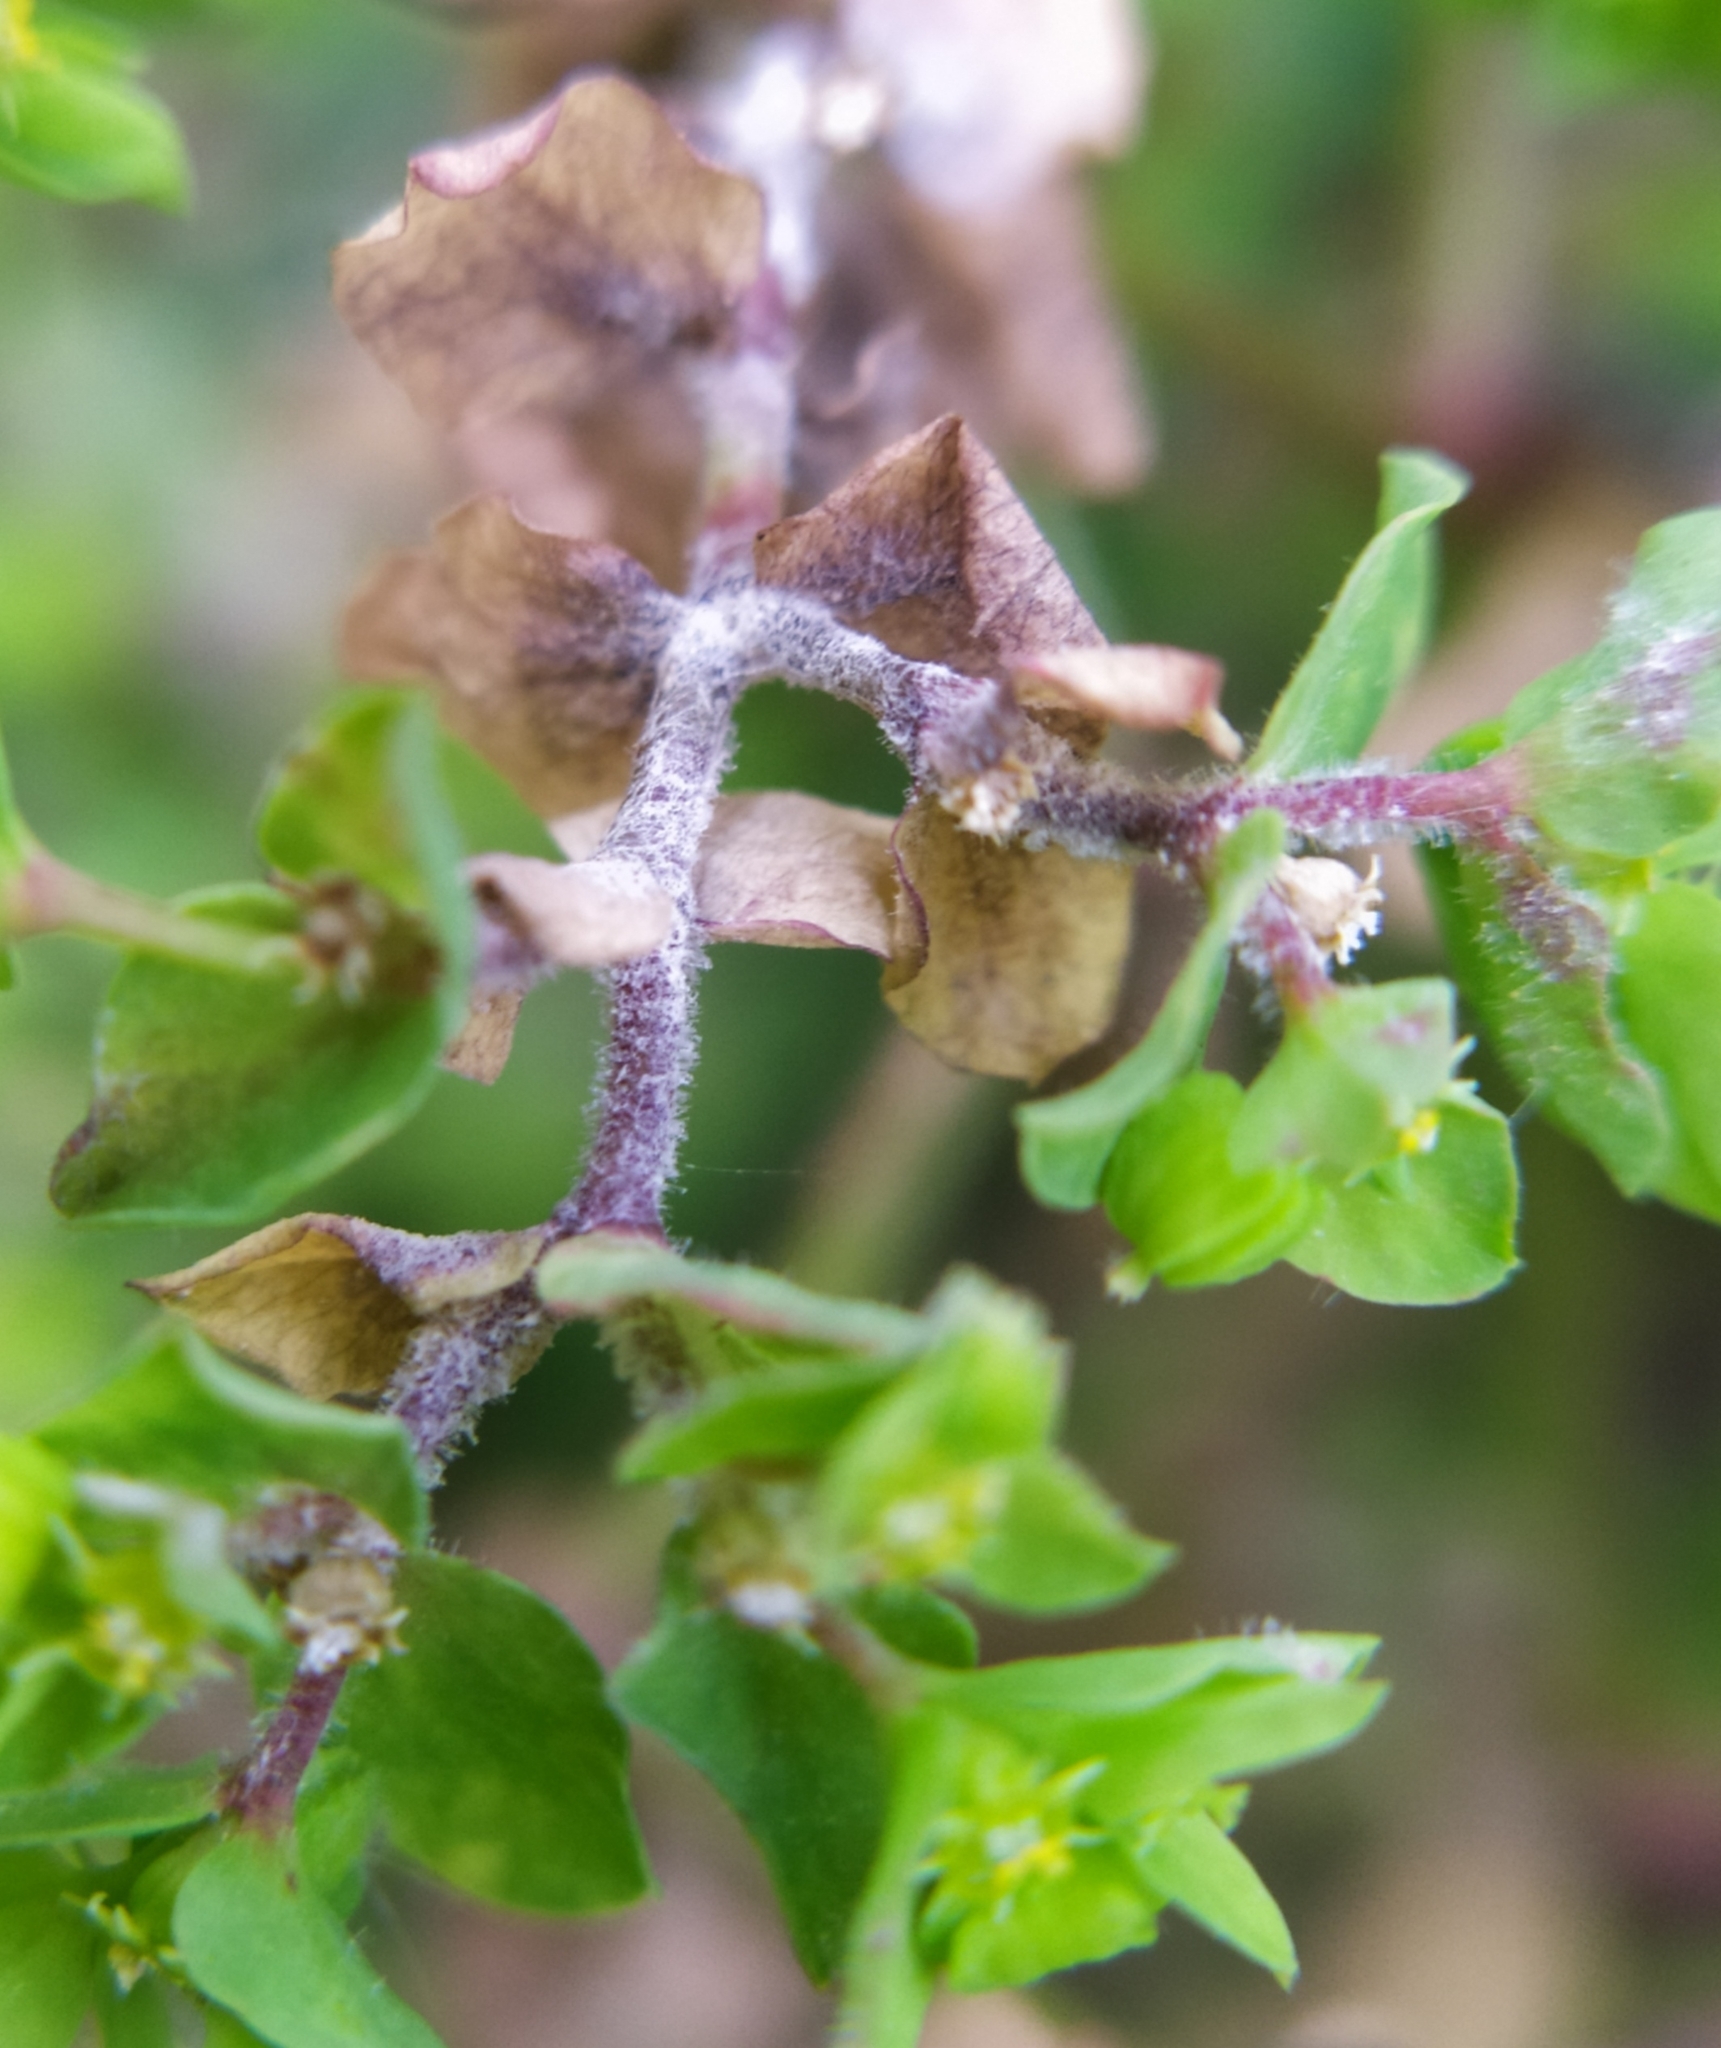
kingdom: Fungi
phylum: Ascomycota
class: Leotiomycetes
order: Helotiales
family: Erysiphaceae
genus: Podosphaera
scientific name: Podosphaera euphorbiae
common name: Eurasian poinsettia powdery mildew
